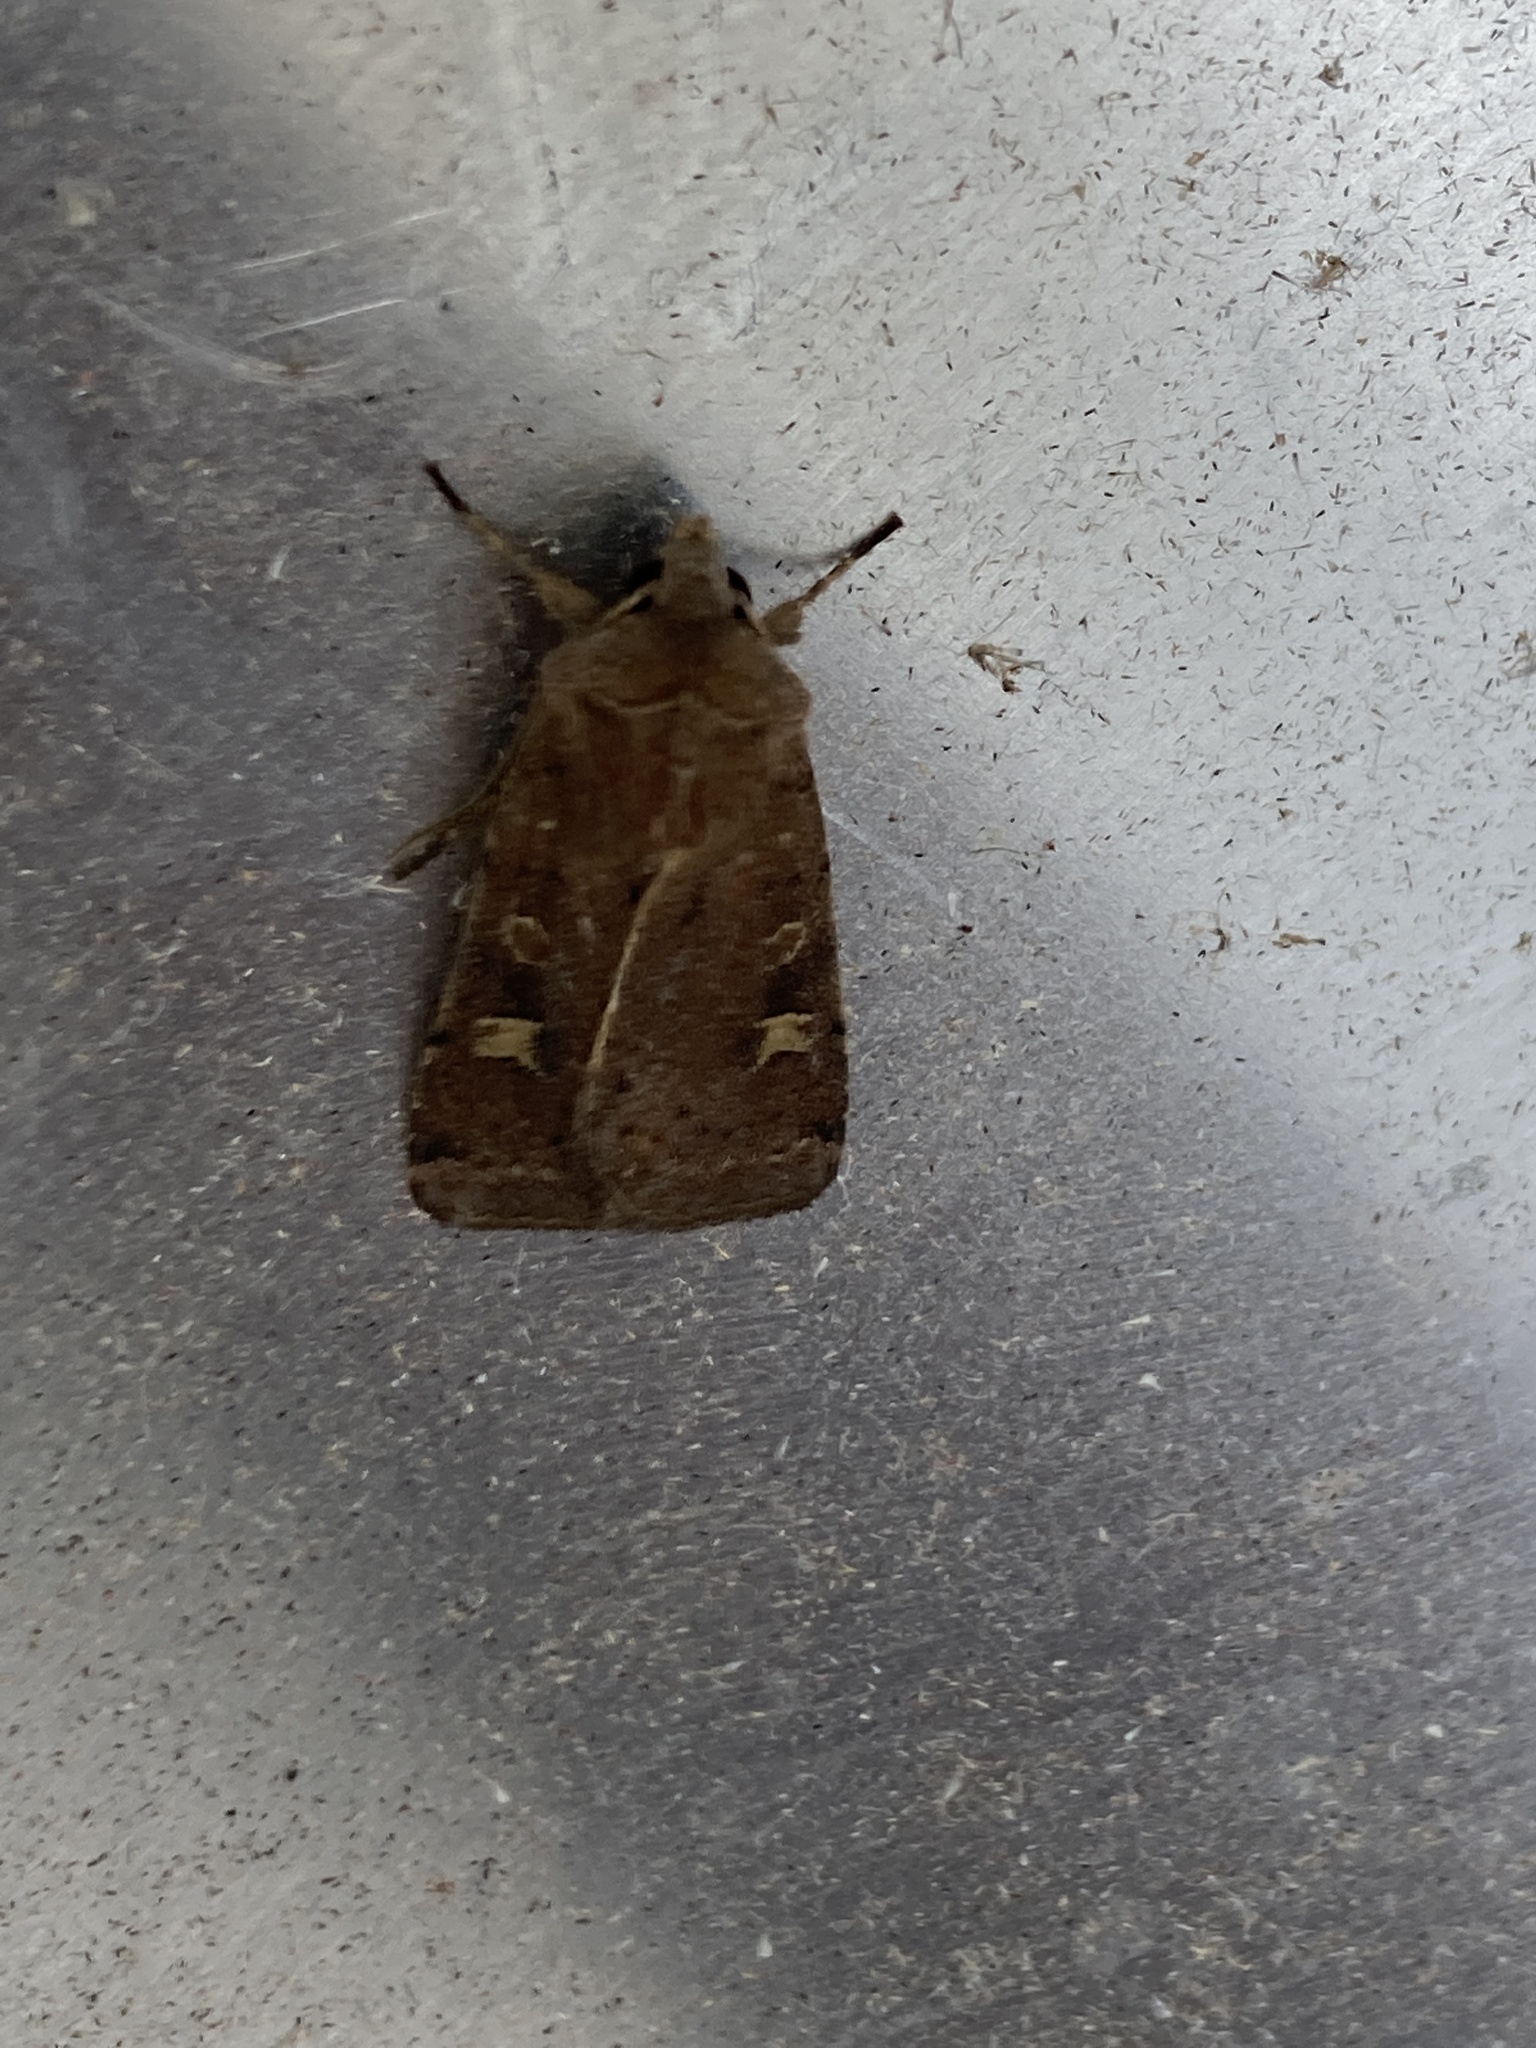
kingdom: Animalia
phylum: Arthropoda
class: Insecta
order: Lepidoptera
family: Noctuidae
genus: Xestia
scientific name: Xestia xanthographa
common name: Square-spot rustic
